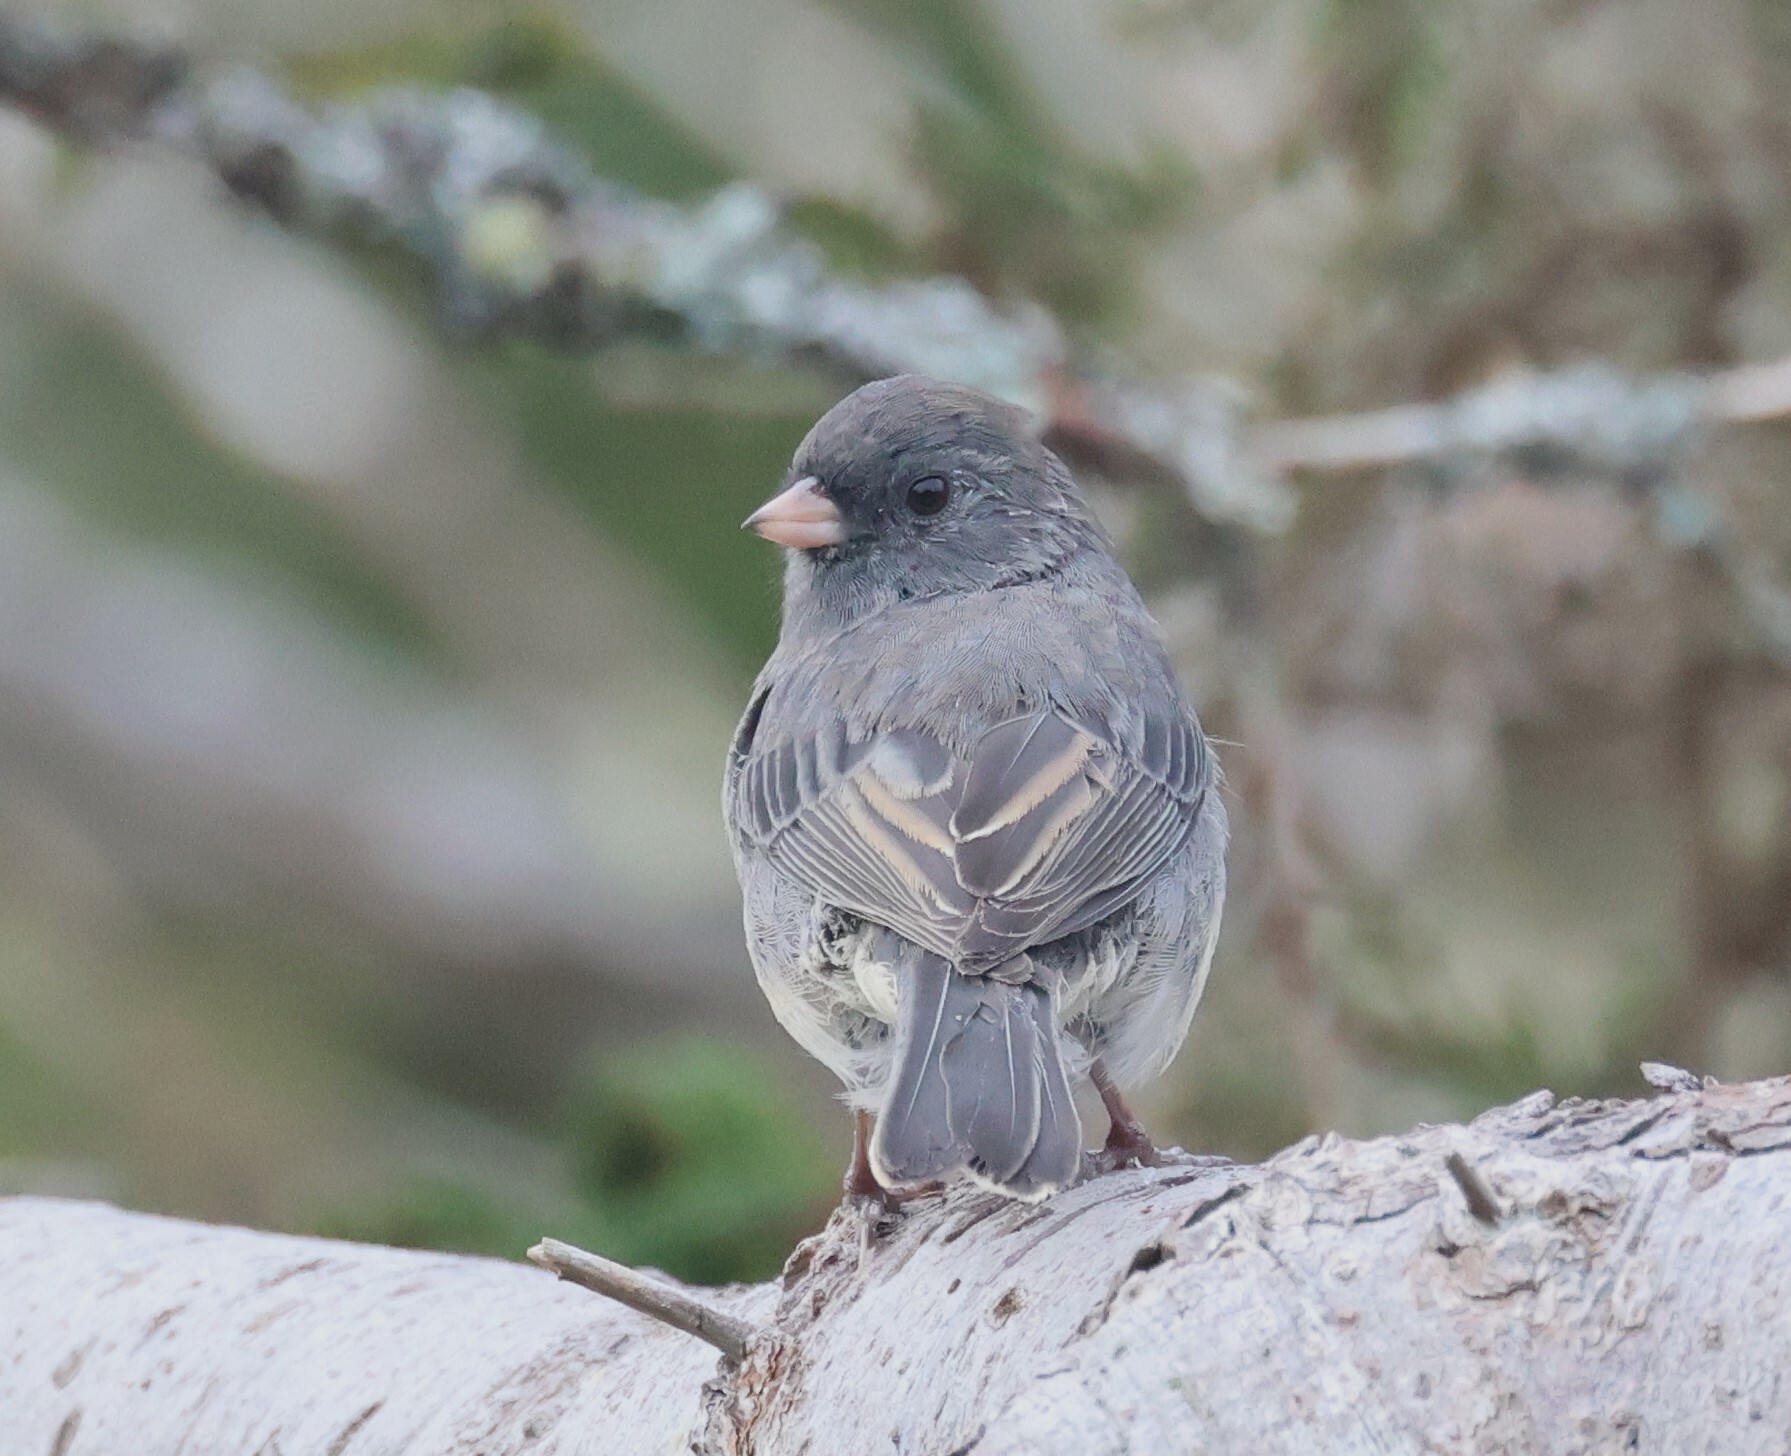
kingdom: Animalia
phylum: Chordata
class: Aves
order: Passeriformes
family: Passerellidae
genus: Junco
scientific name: Junco hyemalis
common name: Dark-eyed junco
